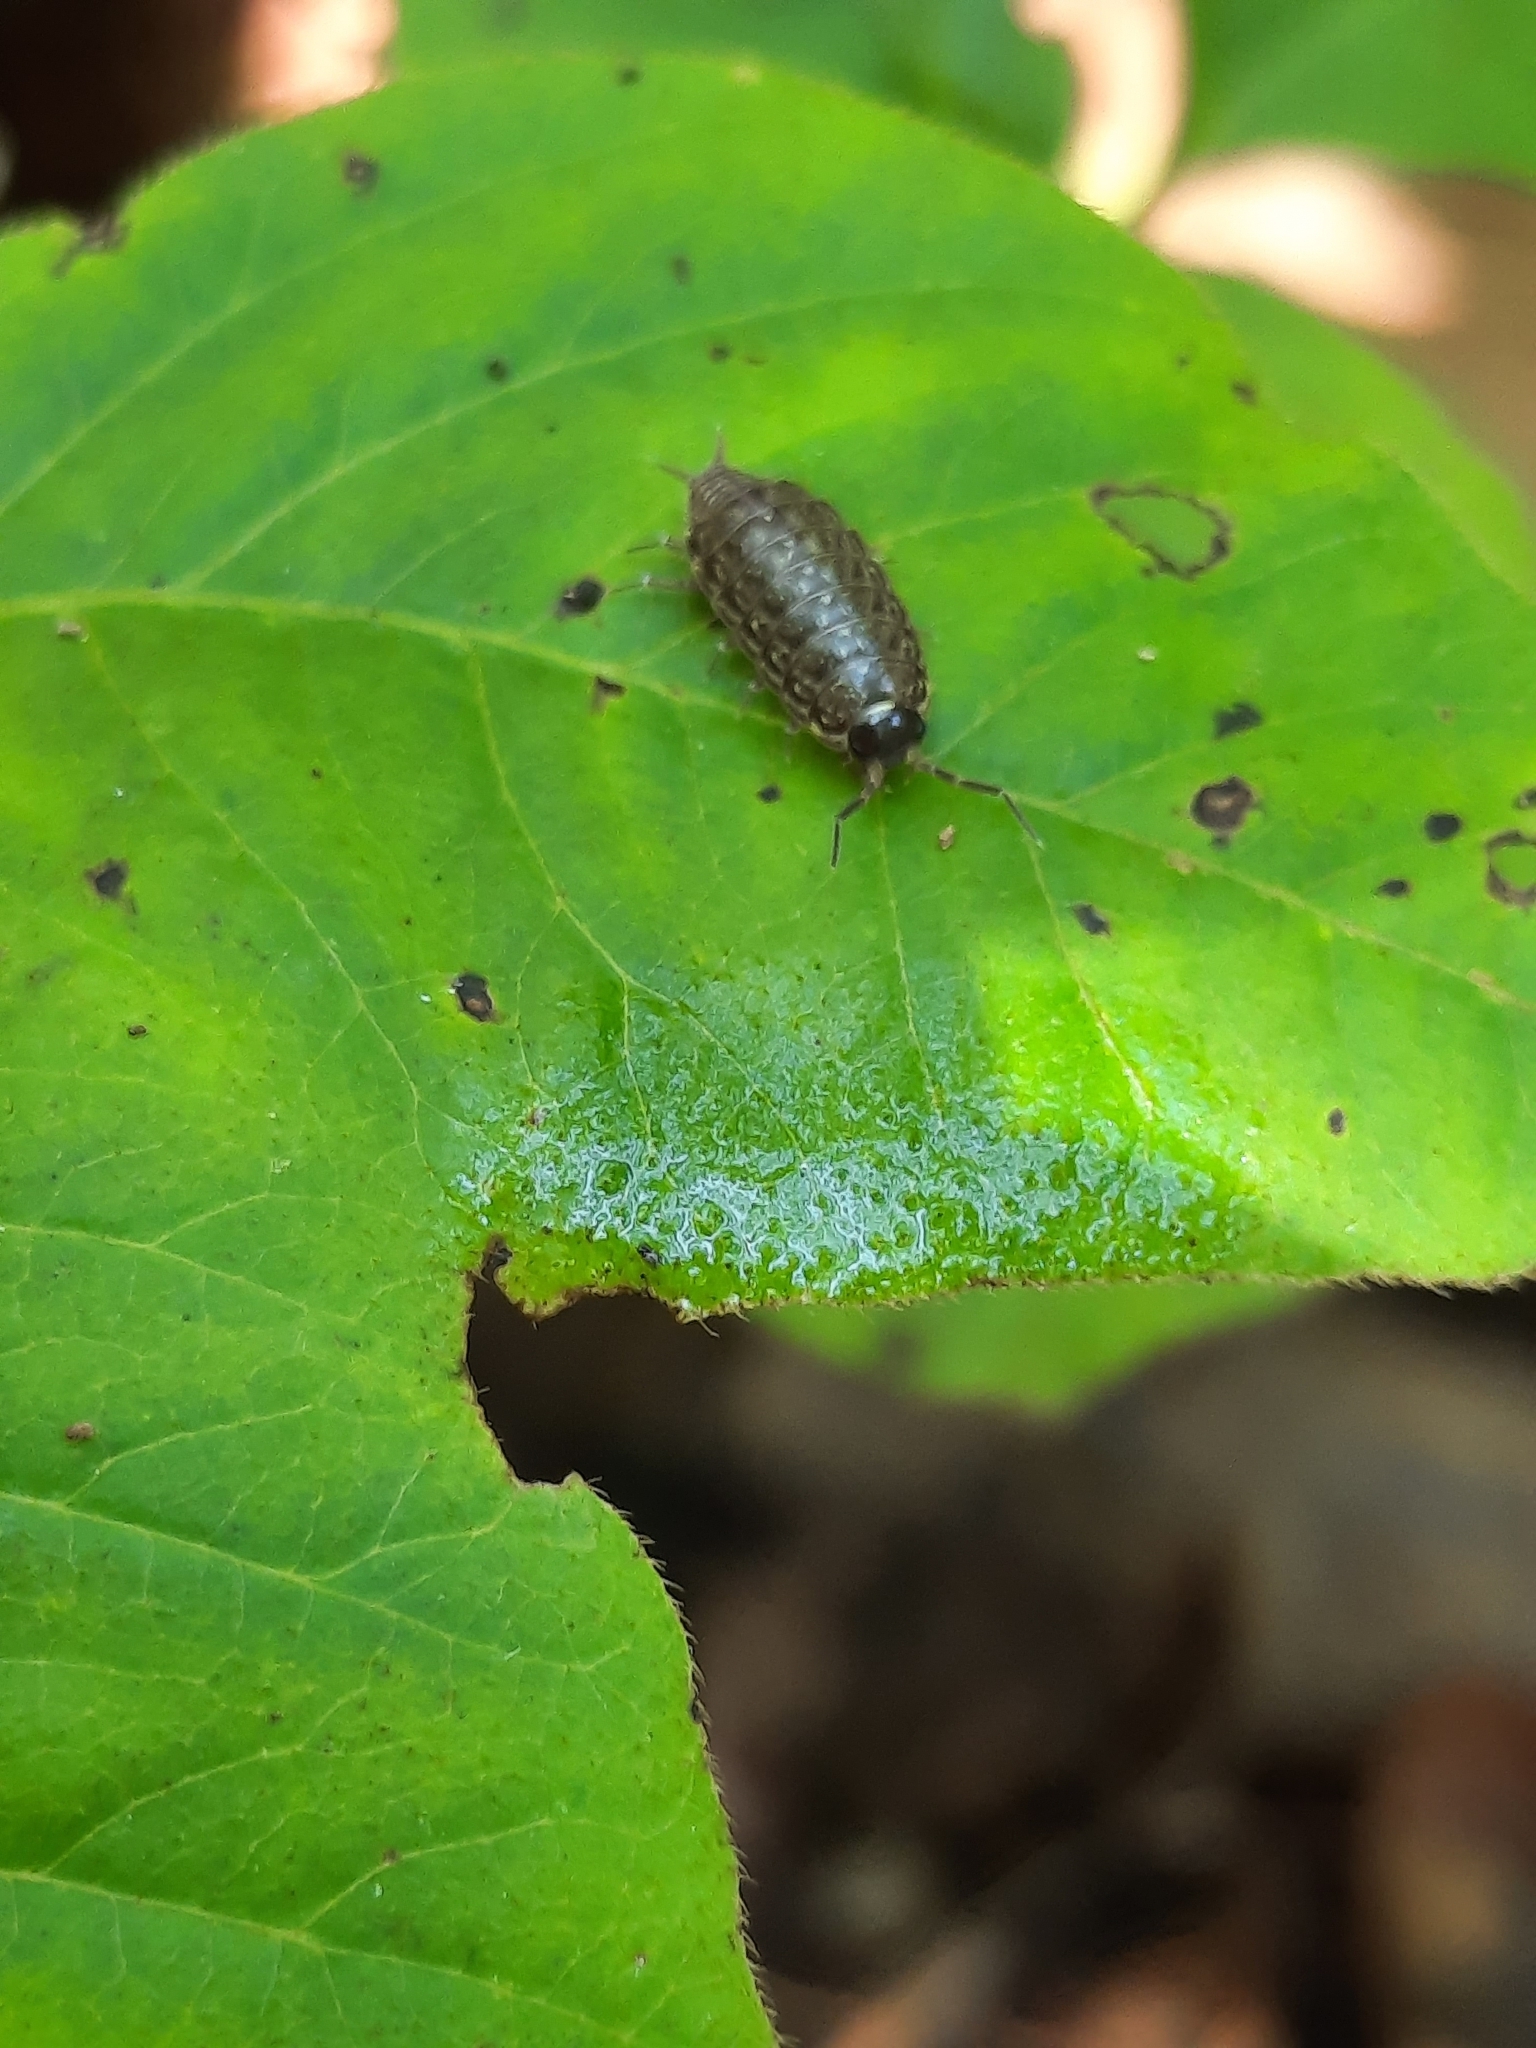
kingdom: Animalia
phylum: Arthropoda
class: Malacostraca
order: Isopoda
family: Philosciidae
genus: Philoscia
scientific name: Philoscia muscorum
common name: Common striped woodlouse
